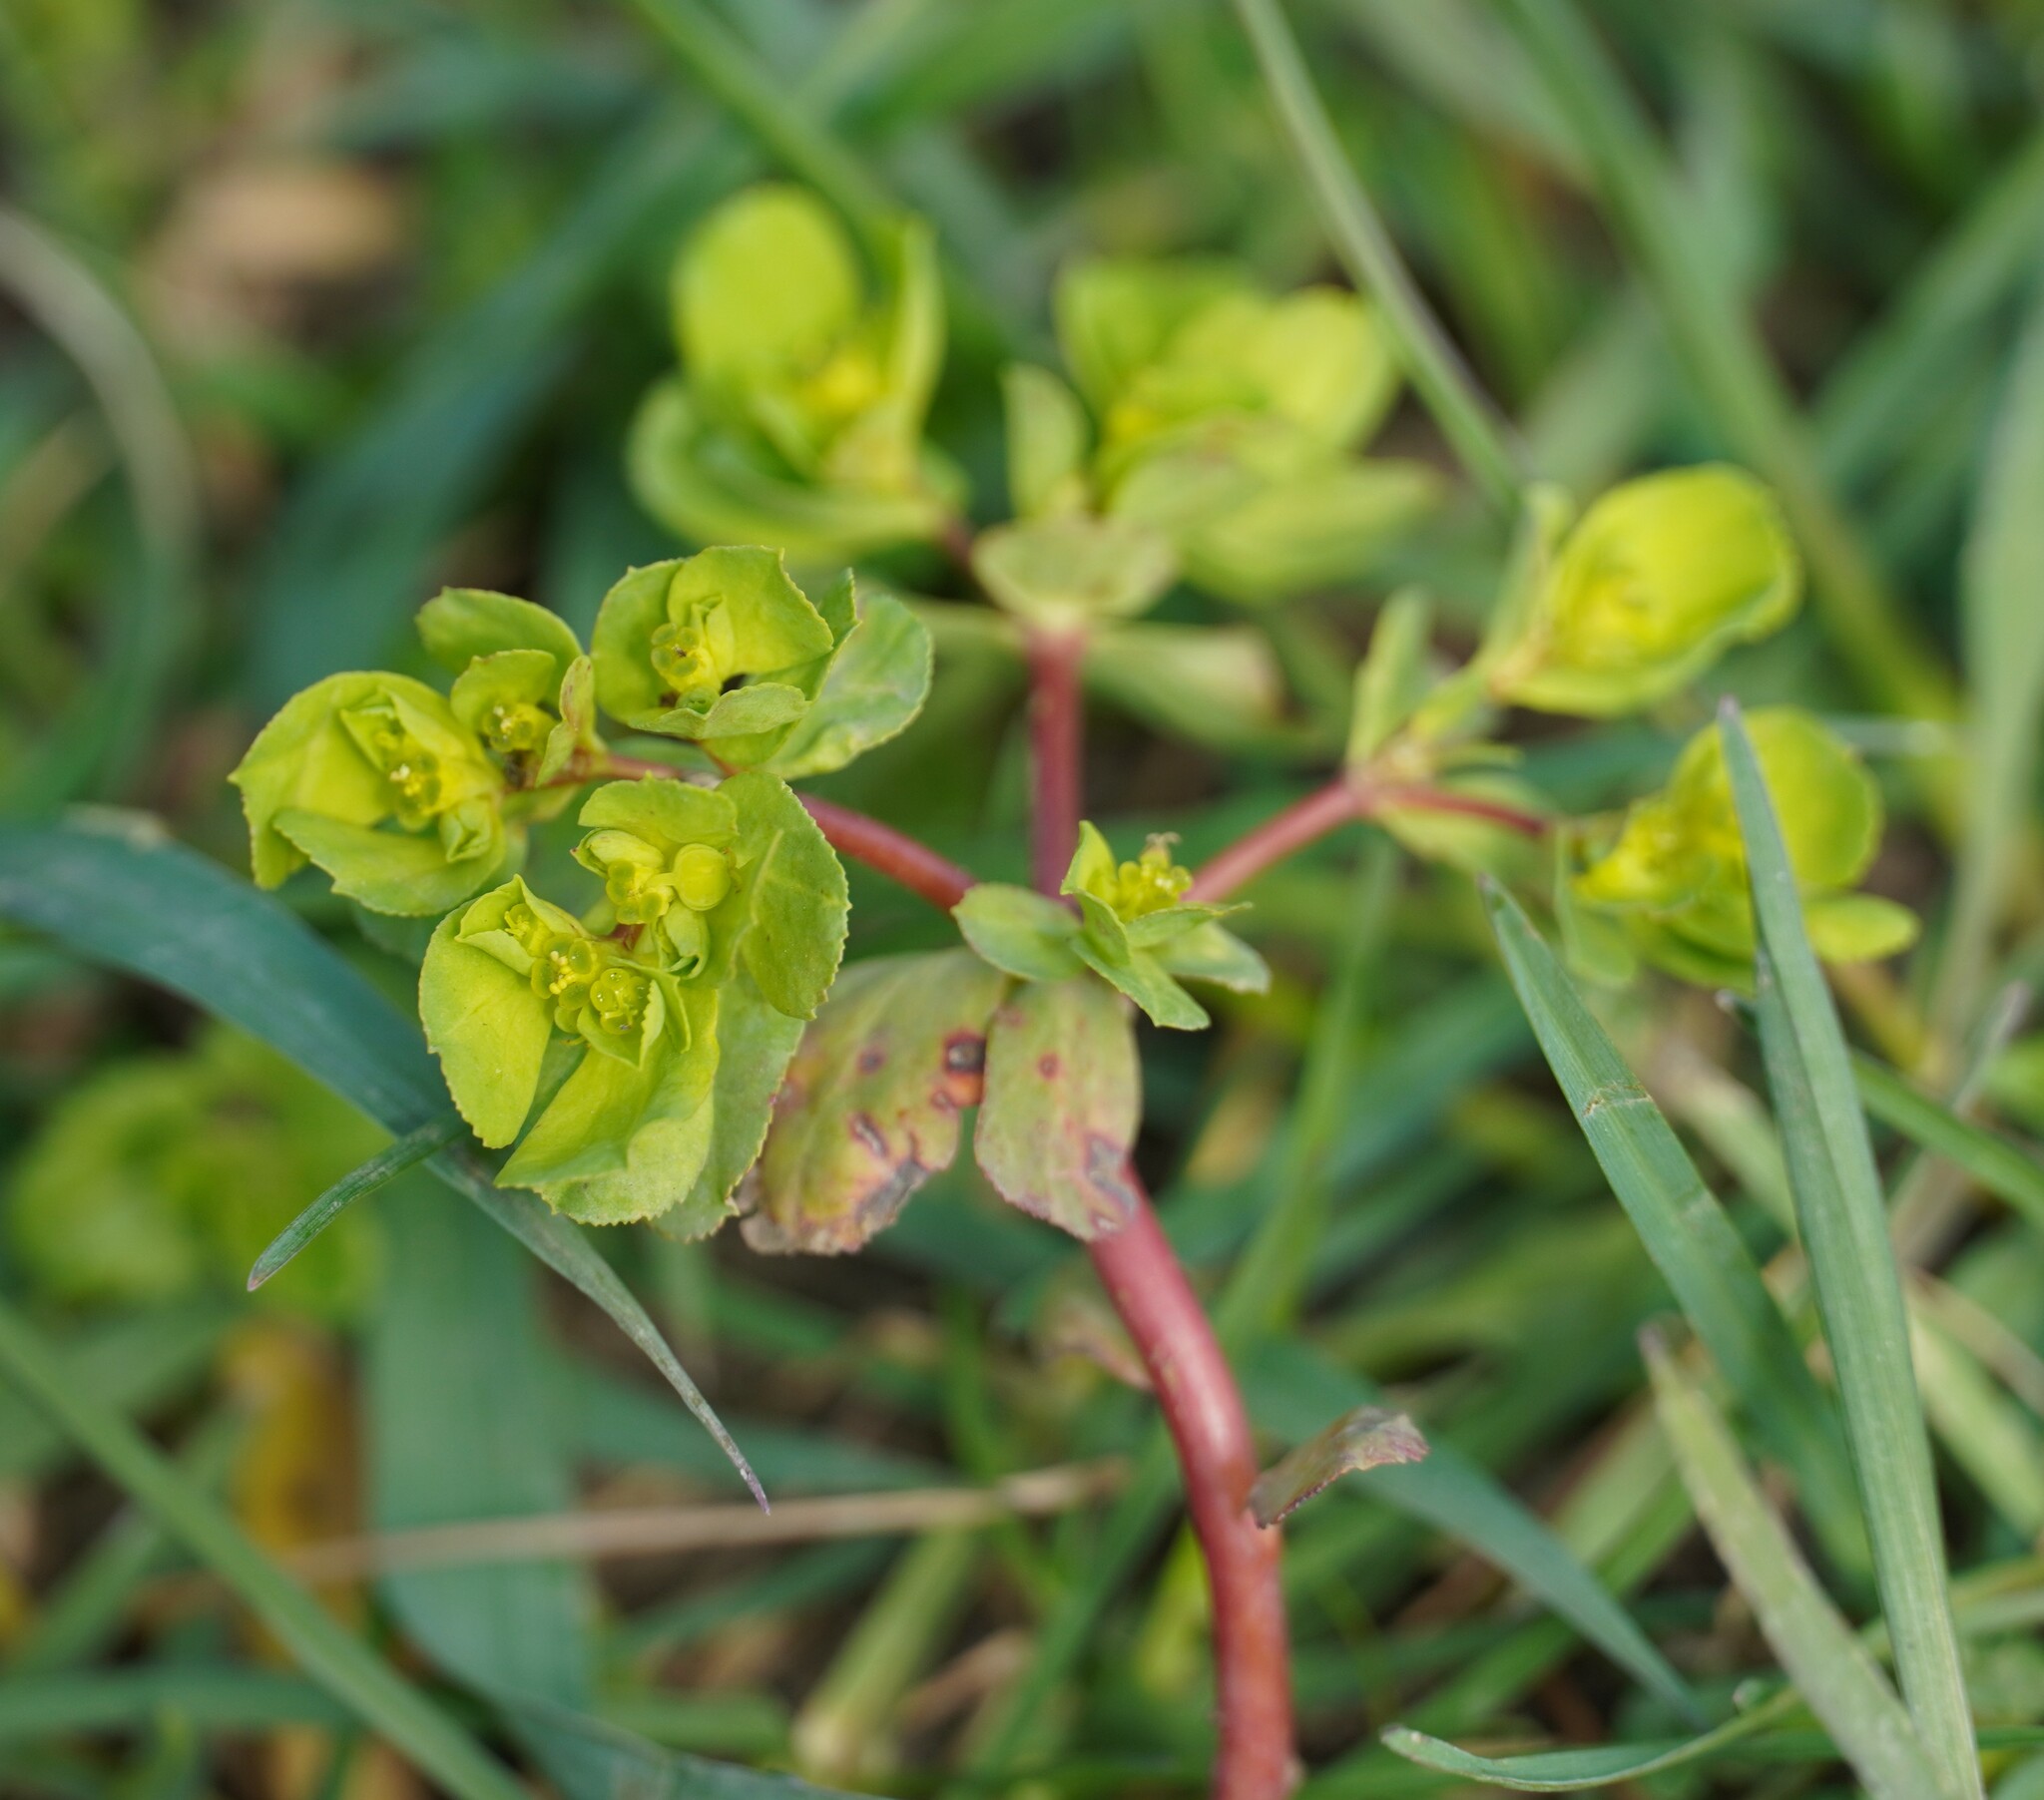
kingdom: Plantae
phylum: Tracheophyta
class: Magnoliopsida
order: Malpighiales
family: Euphorbiaceae
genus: Euphorbia
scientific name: Euphorbia helioscopia
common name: Sun spurge
